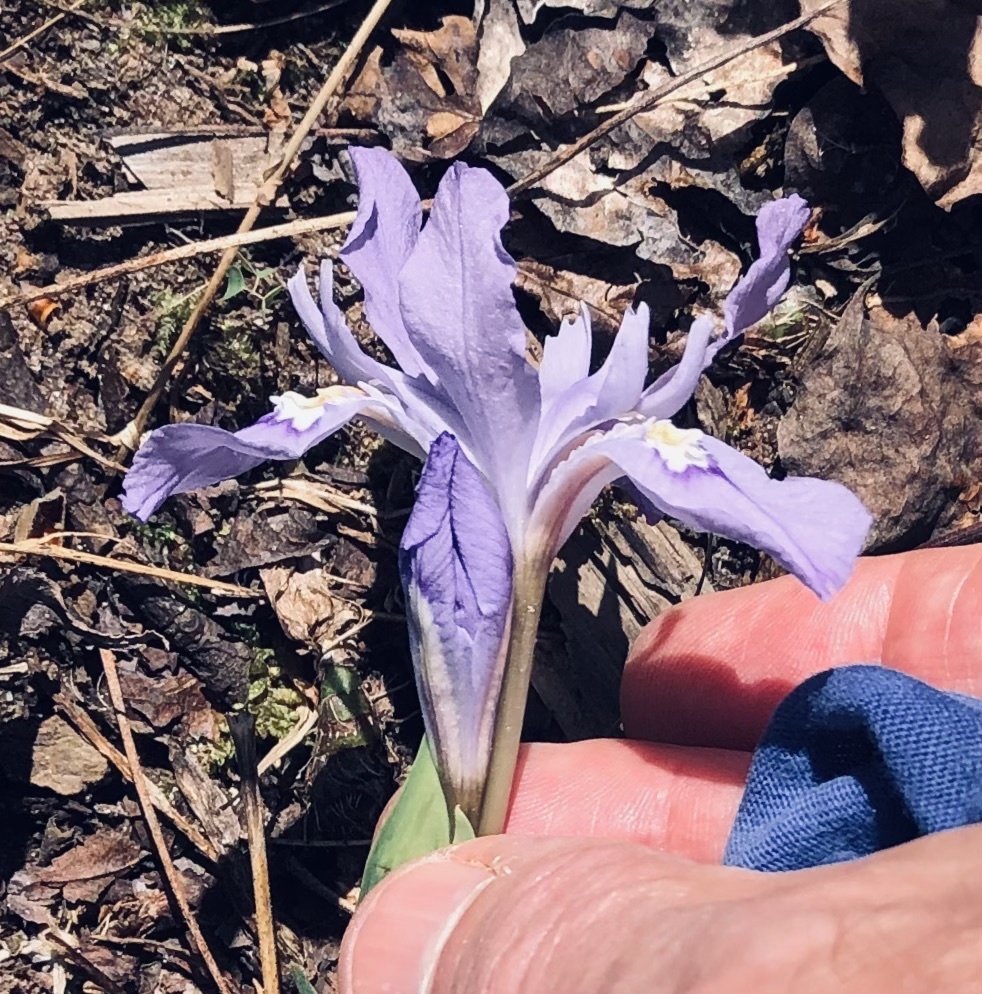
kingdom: Plantae
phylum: Tracheophyta
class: Liliopsida
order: Asparagales
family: Iridaceae
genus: Iris
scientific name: Iris cristata
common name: Crested iris
